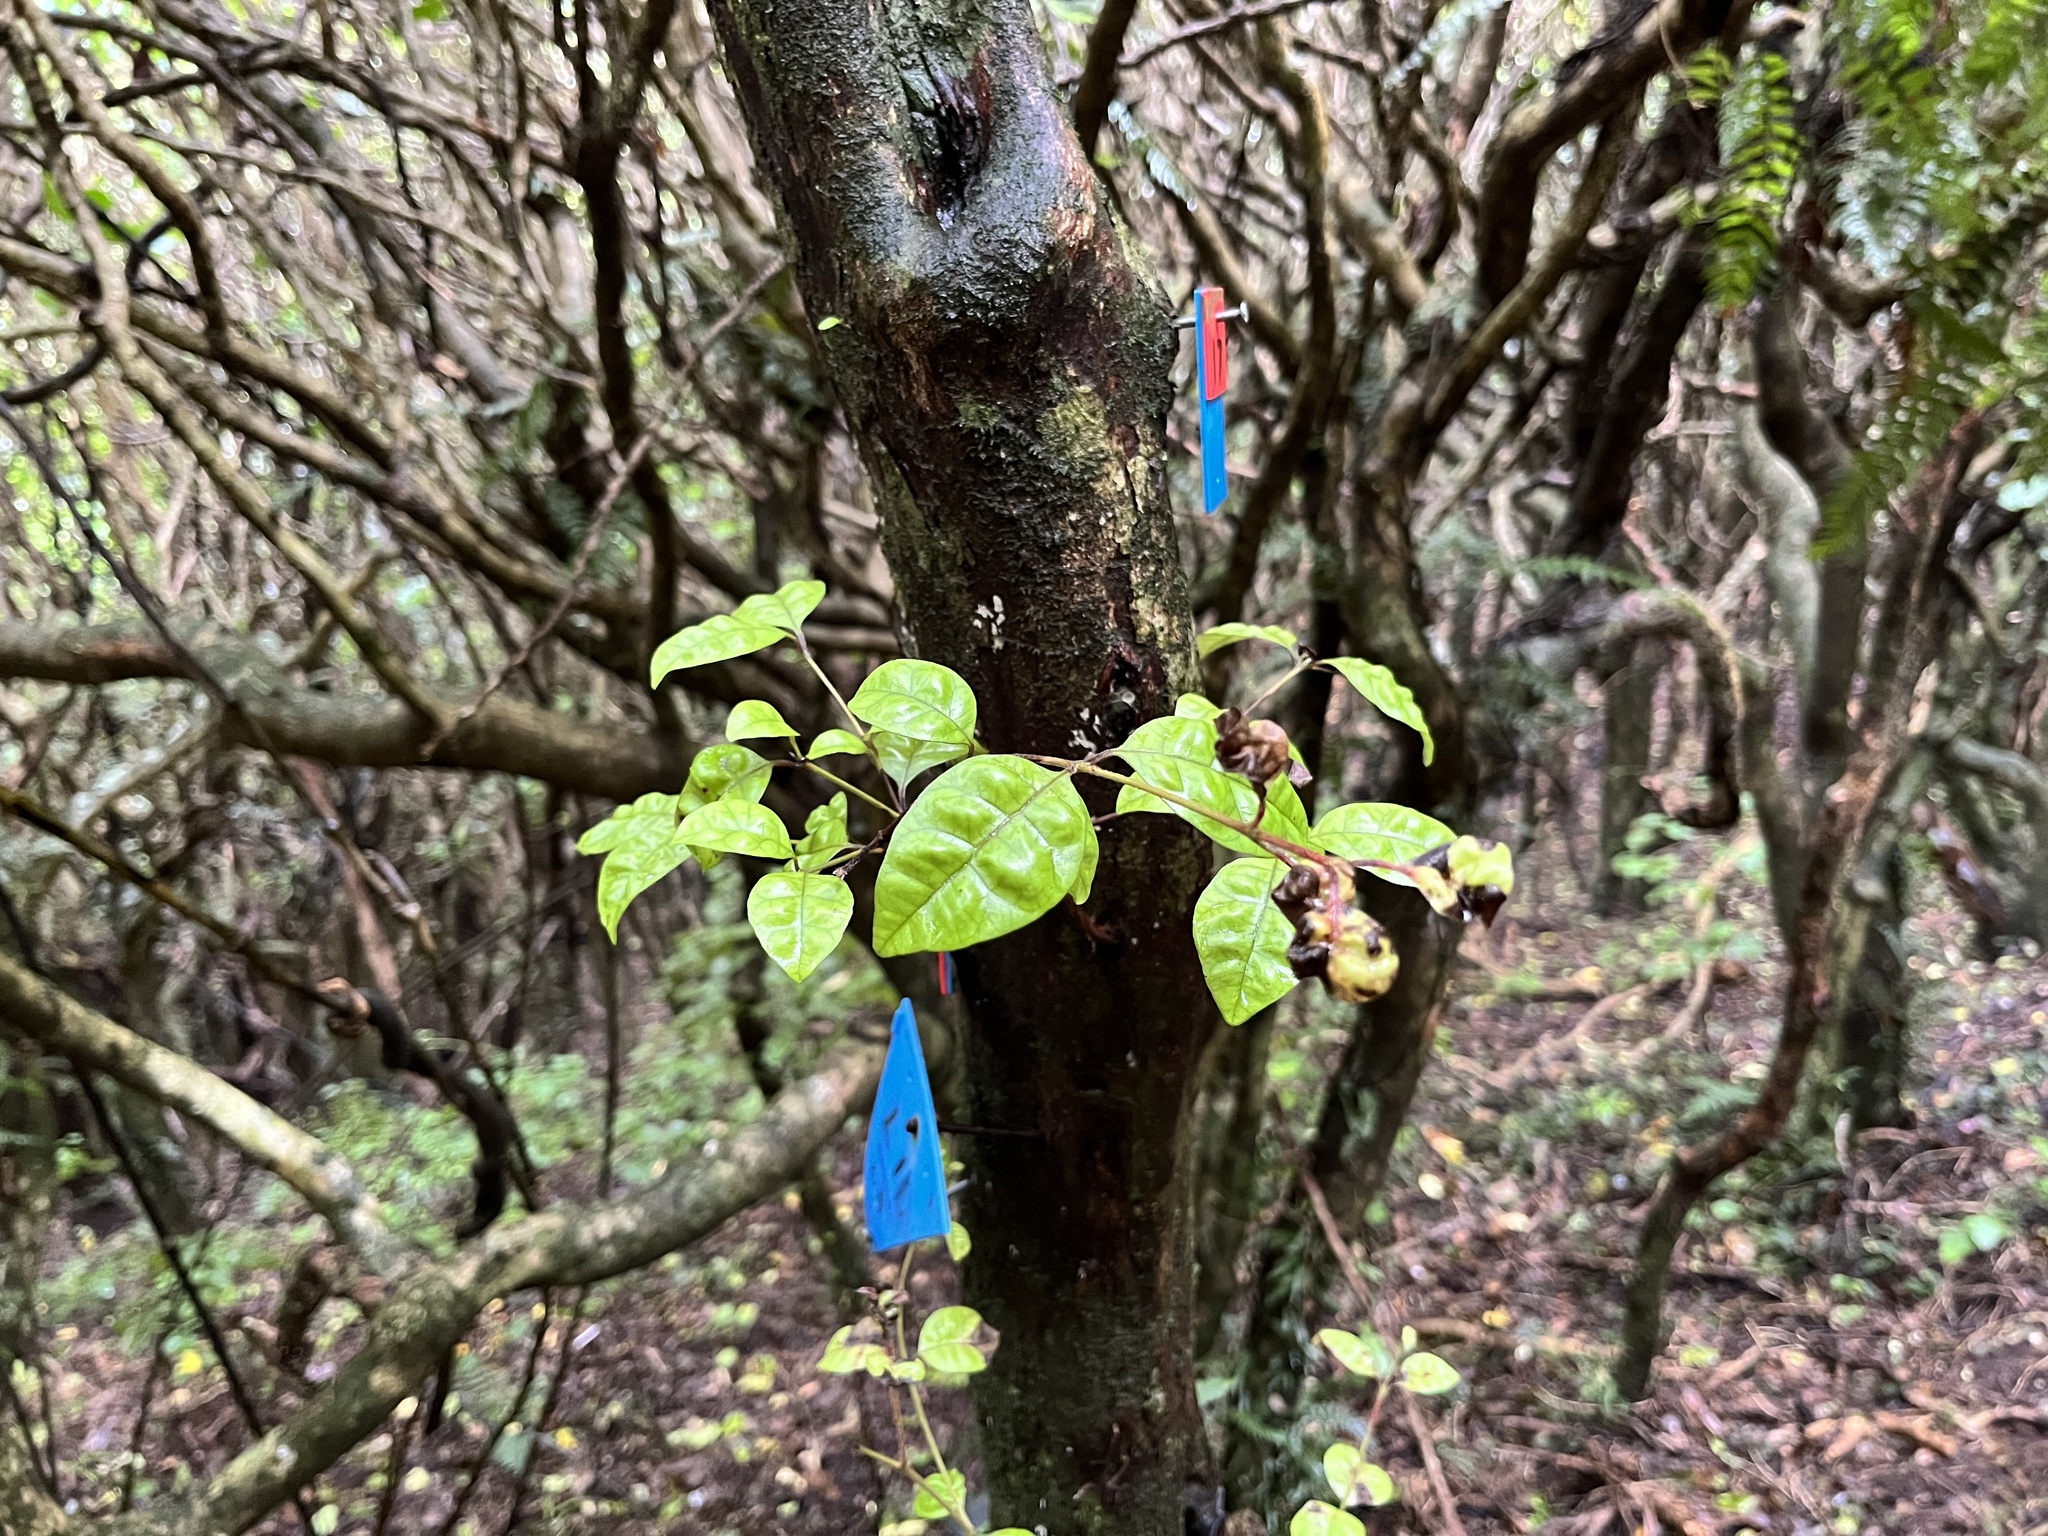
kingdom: Fungi
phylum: Basidiomycota
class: Pucciniomycetes
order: Pucciniales
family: Sphaerophragmiaceae
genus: Austropuccinia
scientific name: Austropuccinia psidii
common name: Myrtle rust
